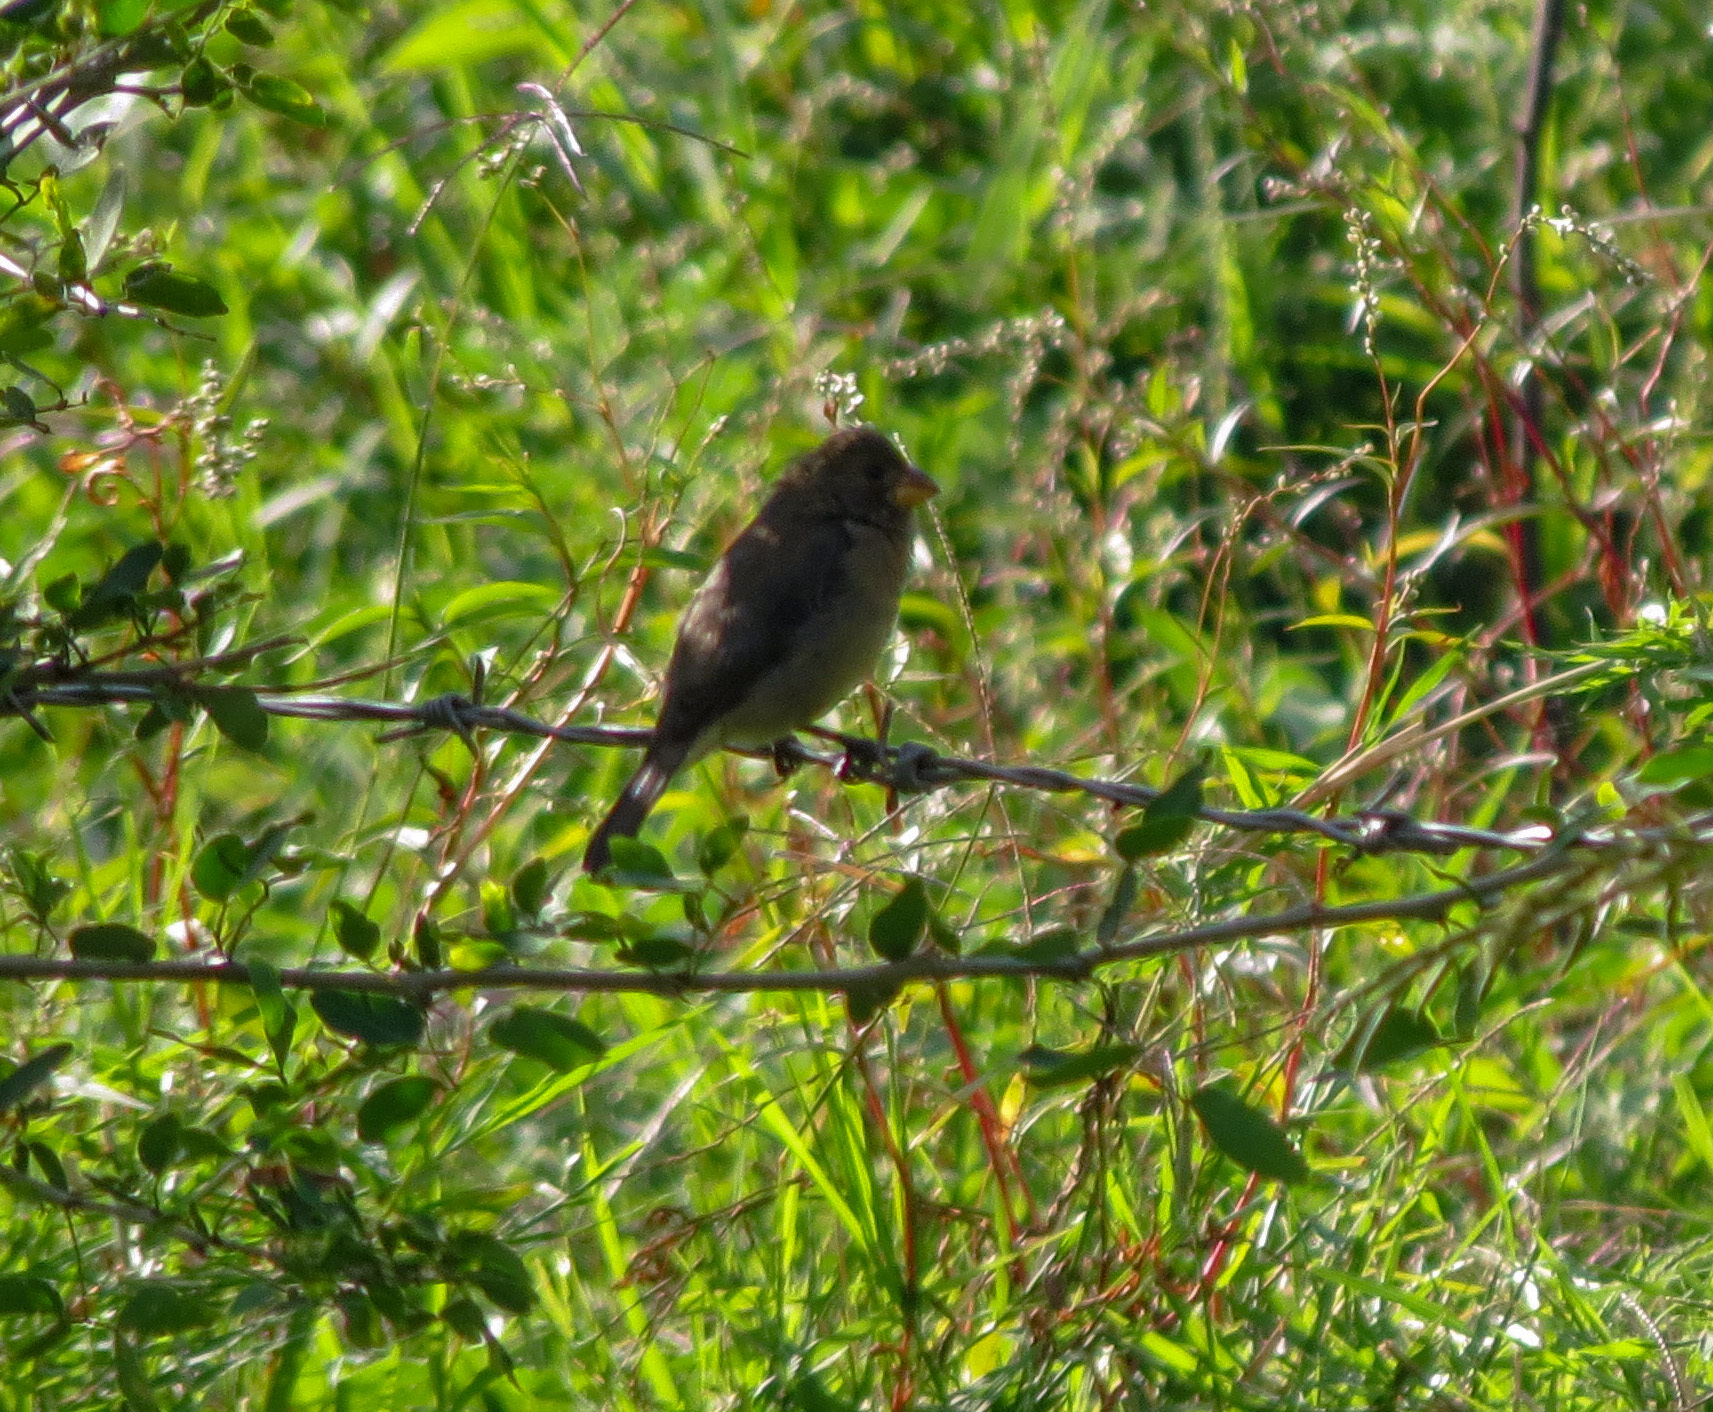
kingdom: Animalia
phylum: Chordata
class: Aves
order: Passeriformes
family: Thraupidae
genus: Sporophila
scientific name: Sporophila intermedia
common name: Grey seedeater
